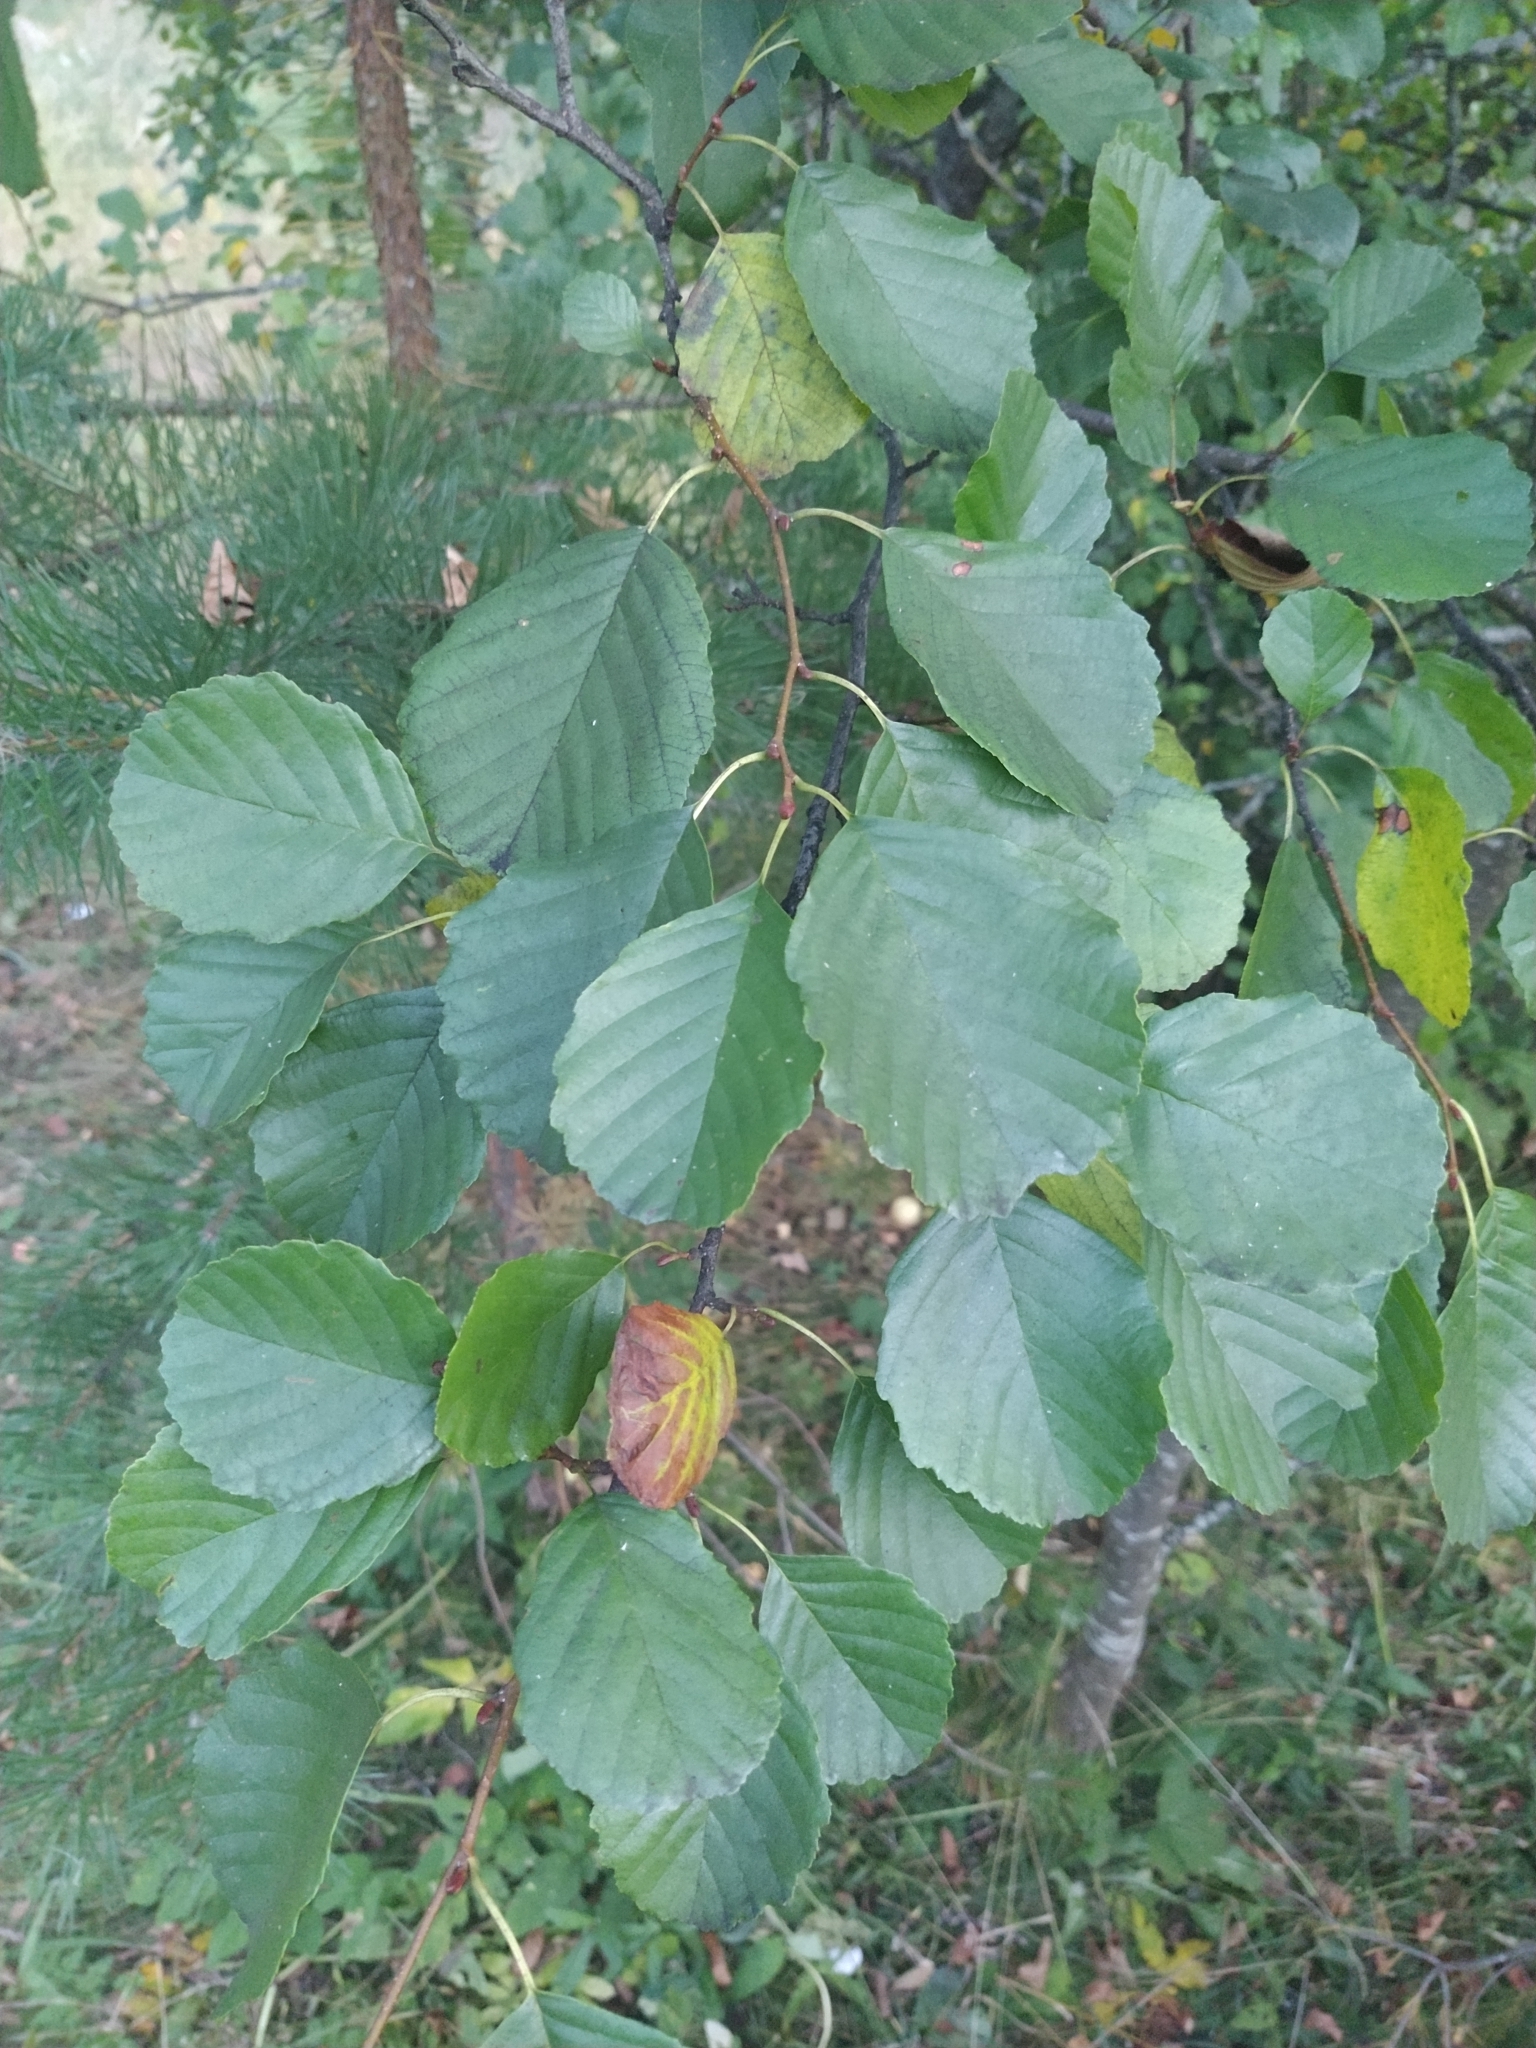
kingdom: Plantae
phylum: Tracheophyta
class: Magnoliopsida
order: Fagales
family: Betulaceae
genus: Alnus
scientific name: Alnus glutinosa
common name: Black alder
